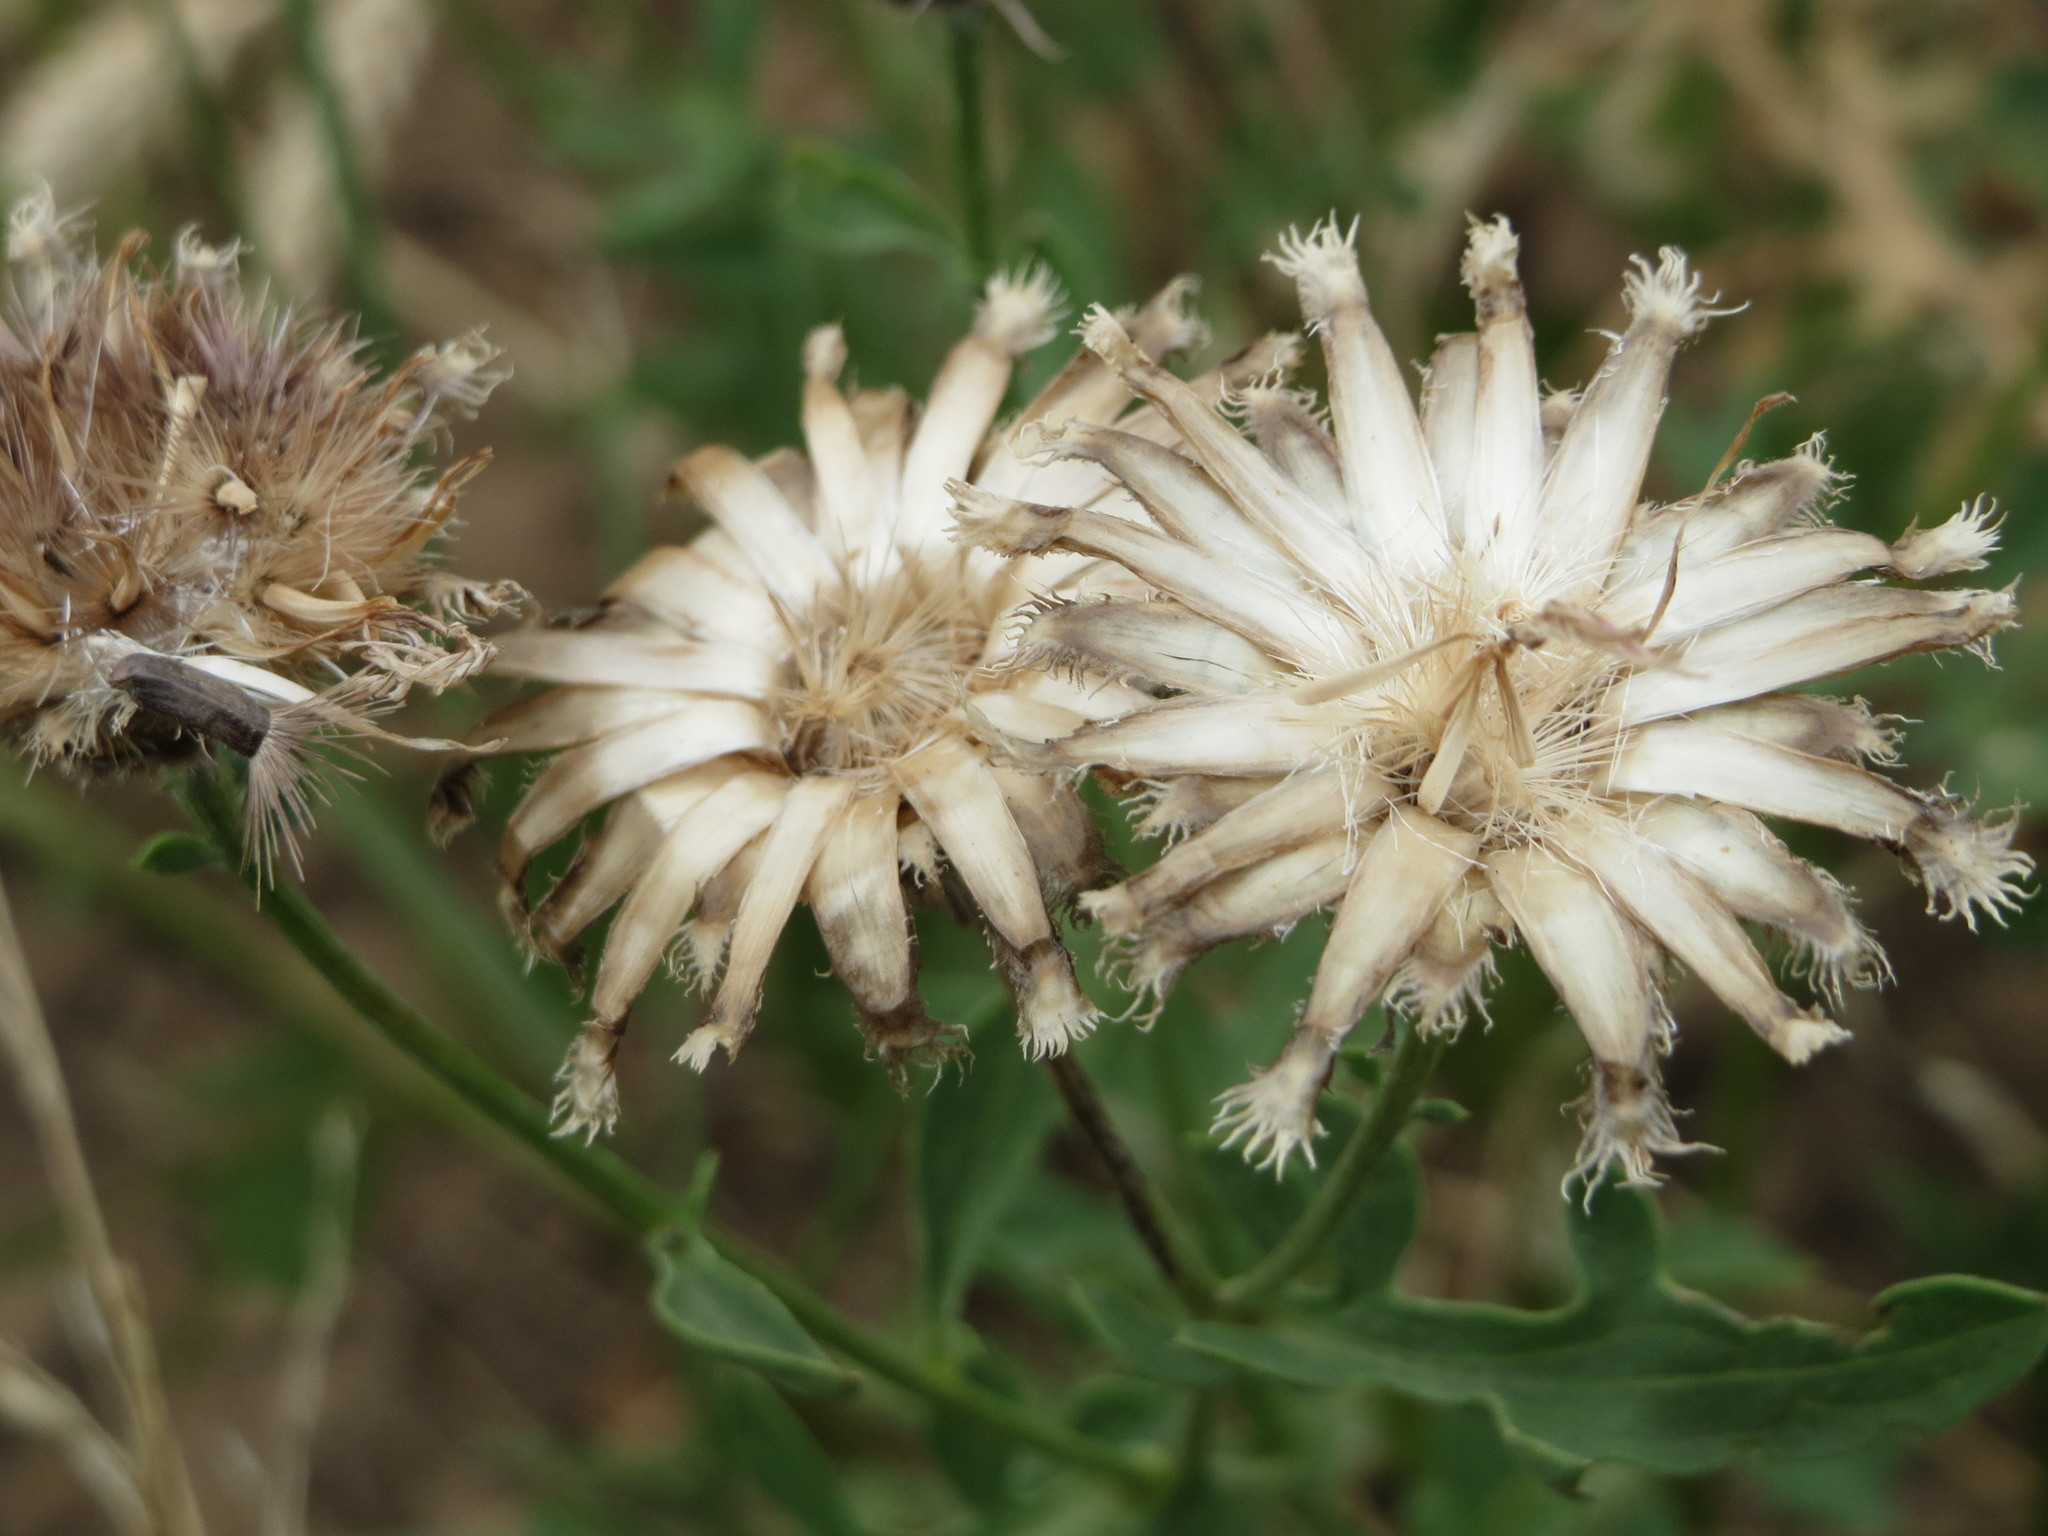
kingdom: Plantae
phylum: Tracheophyta
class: Magnoliopsida
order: Asterales
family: Asteraceae
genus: Centaurea
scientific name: Centaurea scabiosa
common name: Greater knapweed
